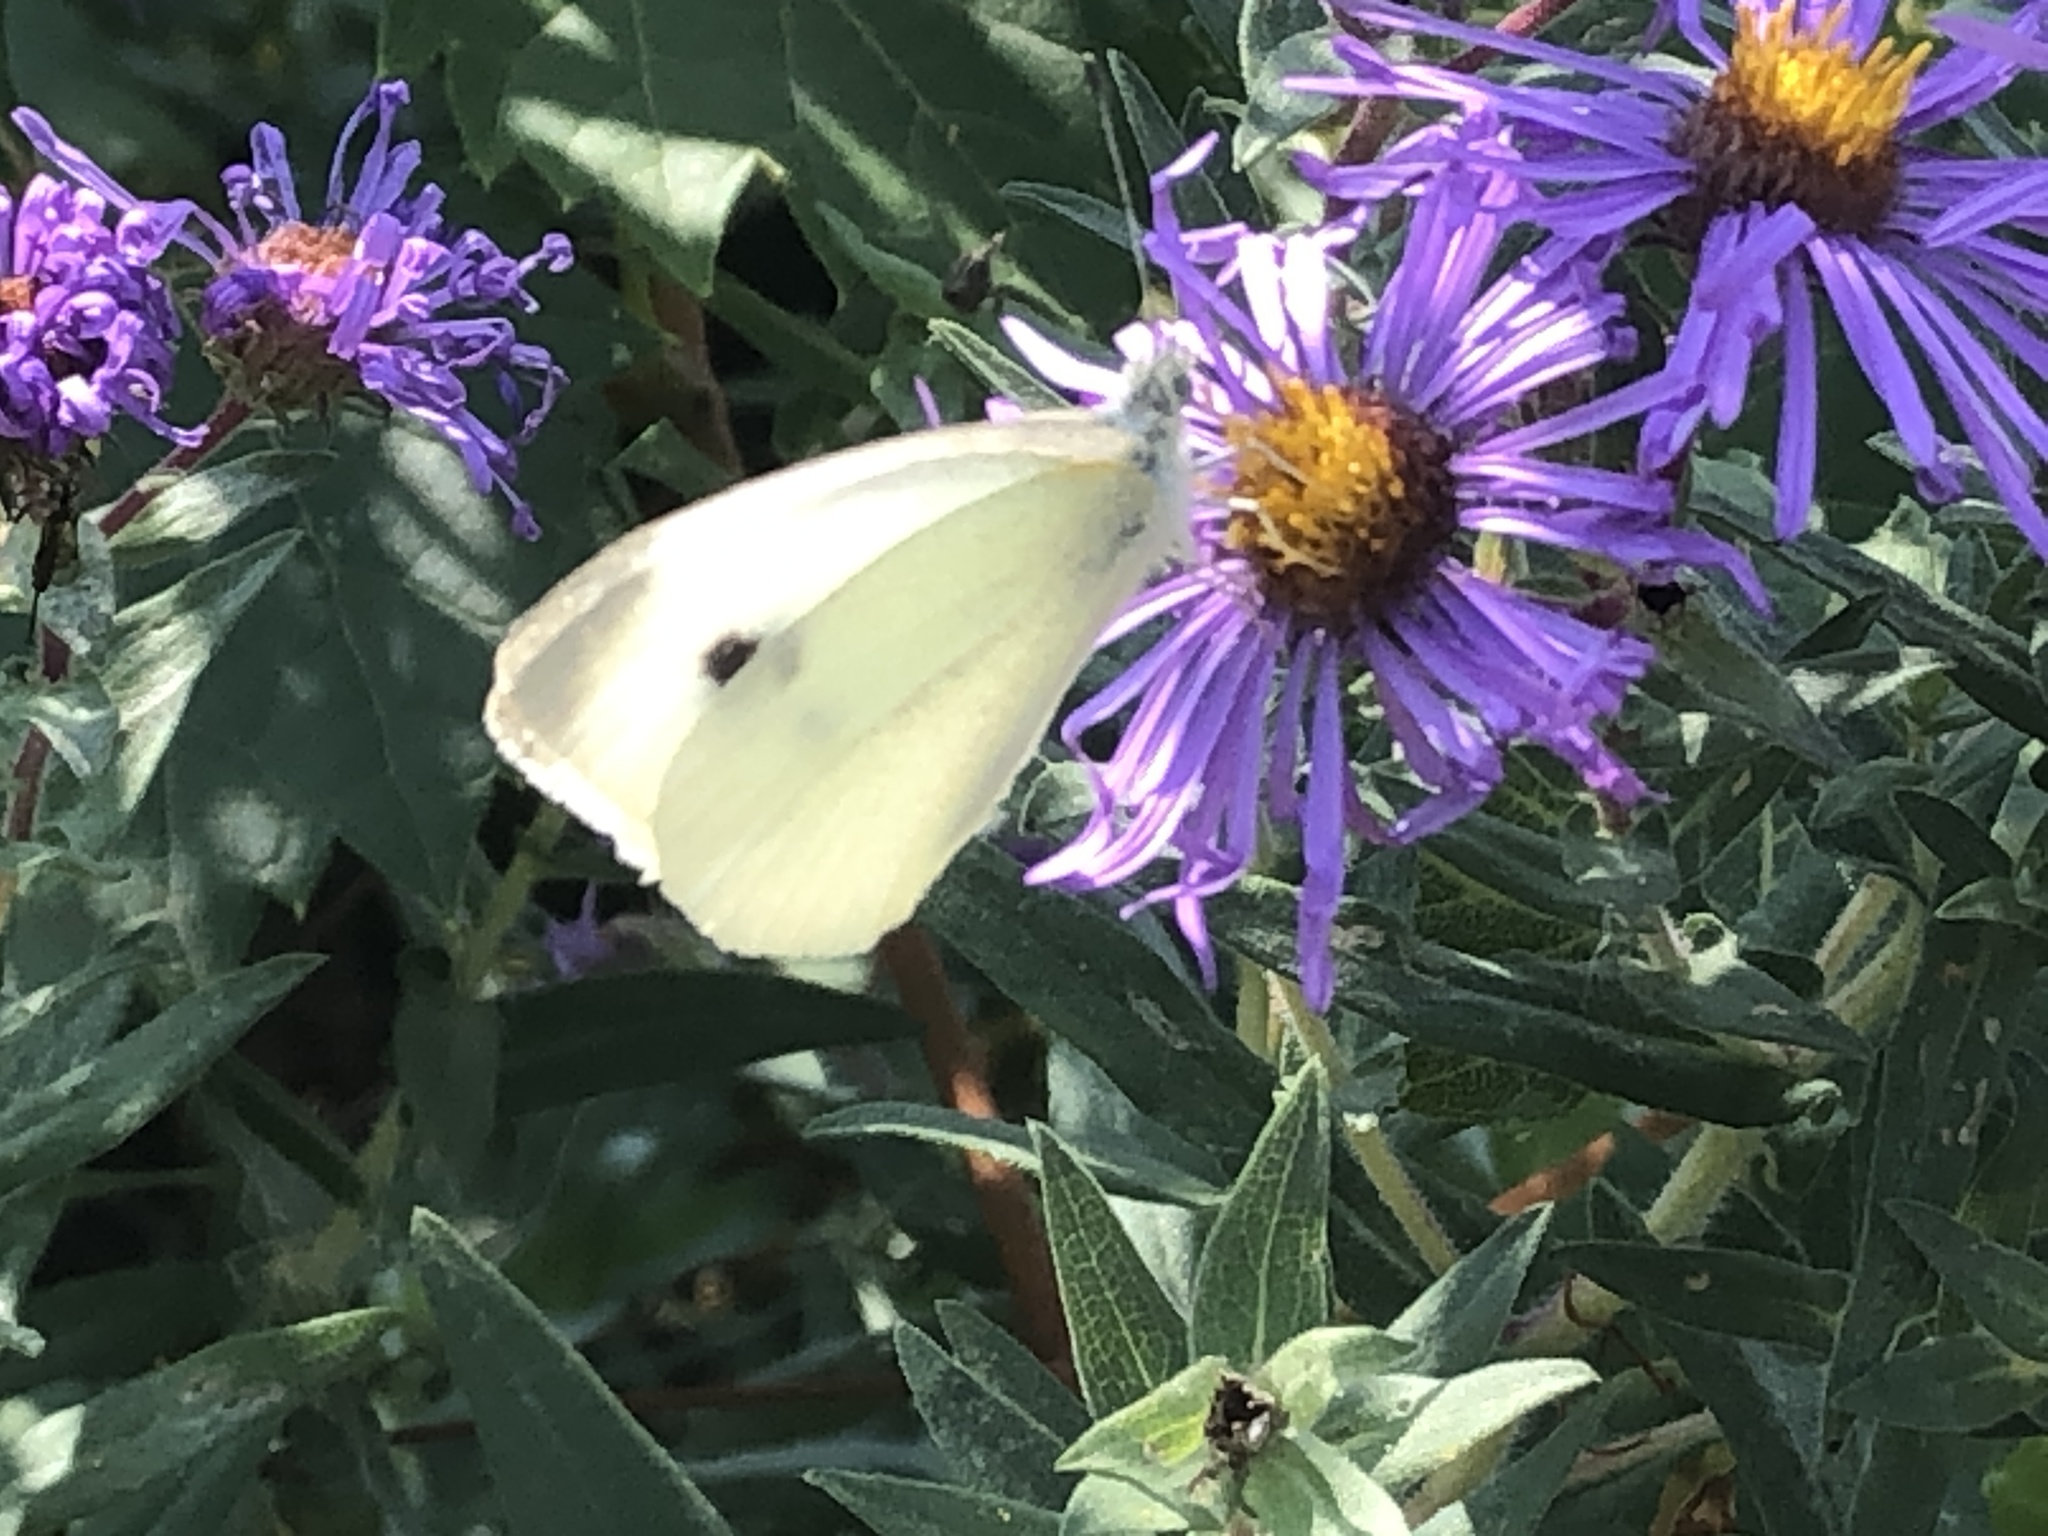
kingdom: Animalia
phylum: Arthropoda
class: Insecta
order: Lepidoptera
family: Pieridae
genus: Pieris
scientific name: Pieris rapae
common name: Small white
